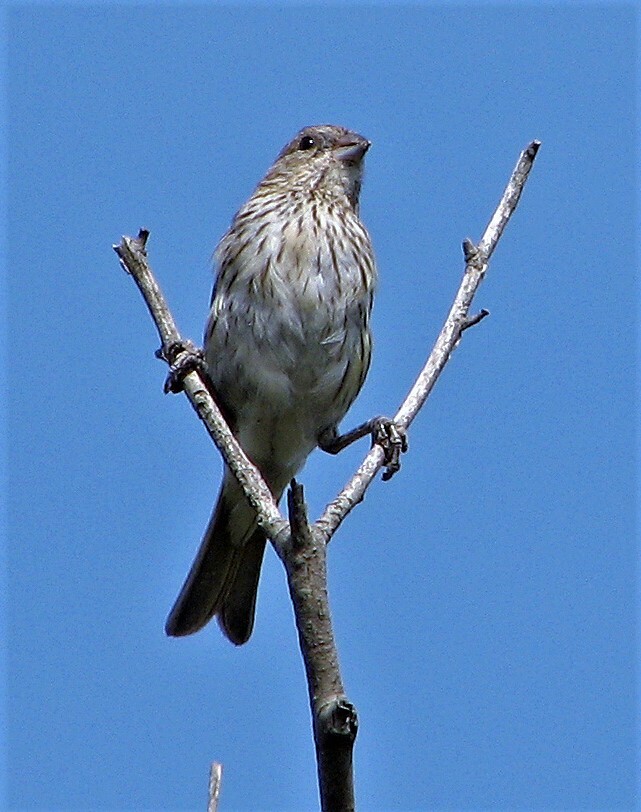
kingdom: Animalia
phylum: Chordata
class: Aves
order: Passeriformes
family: Thraupidae
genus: Sicalis
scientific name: Sicalis flaveola
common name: Saffron finch
